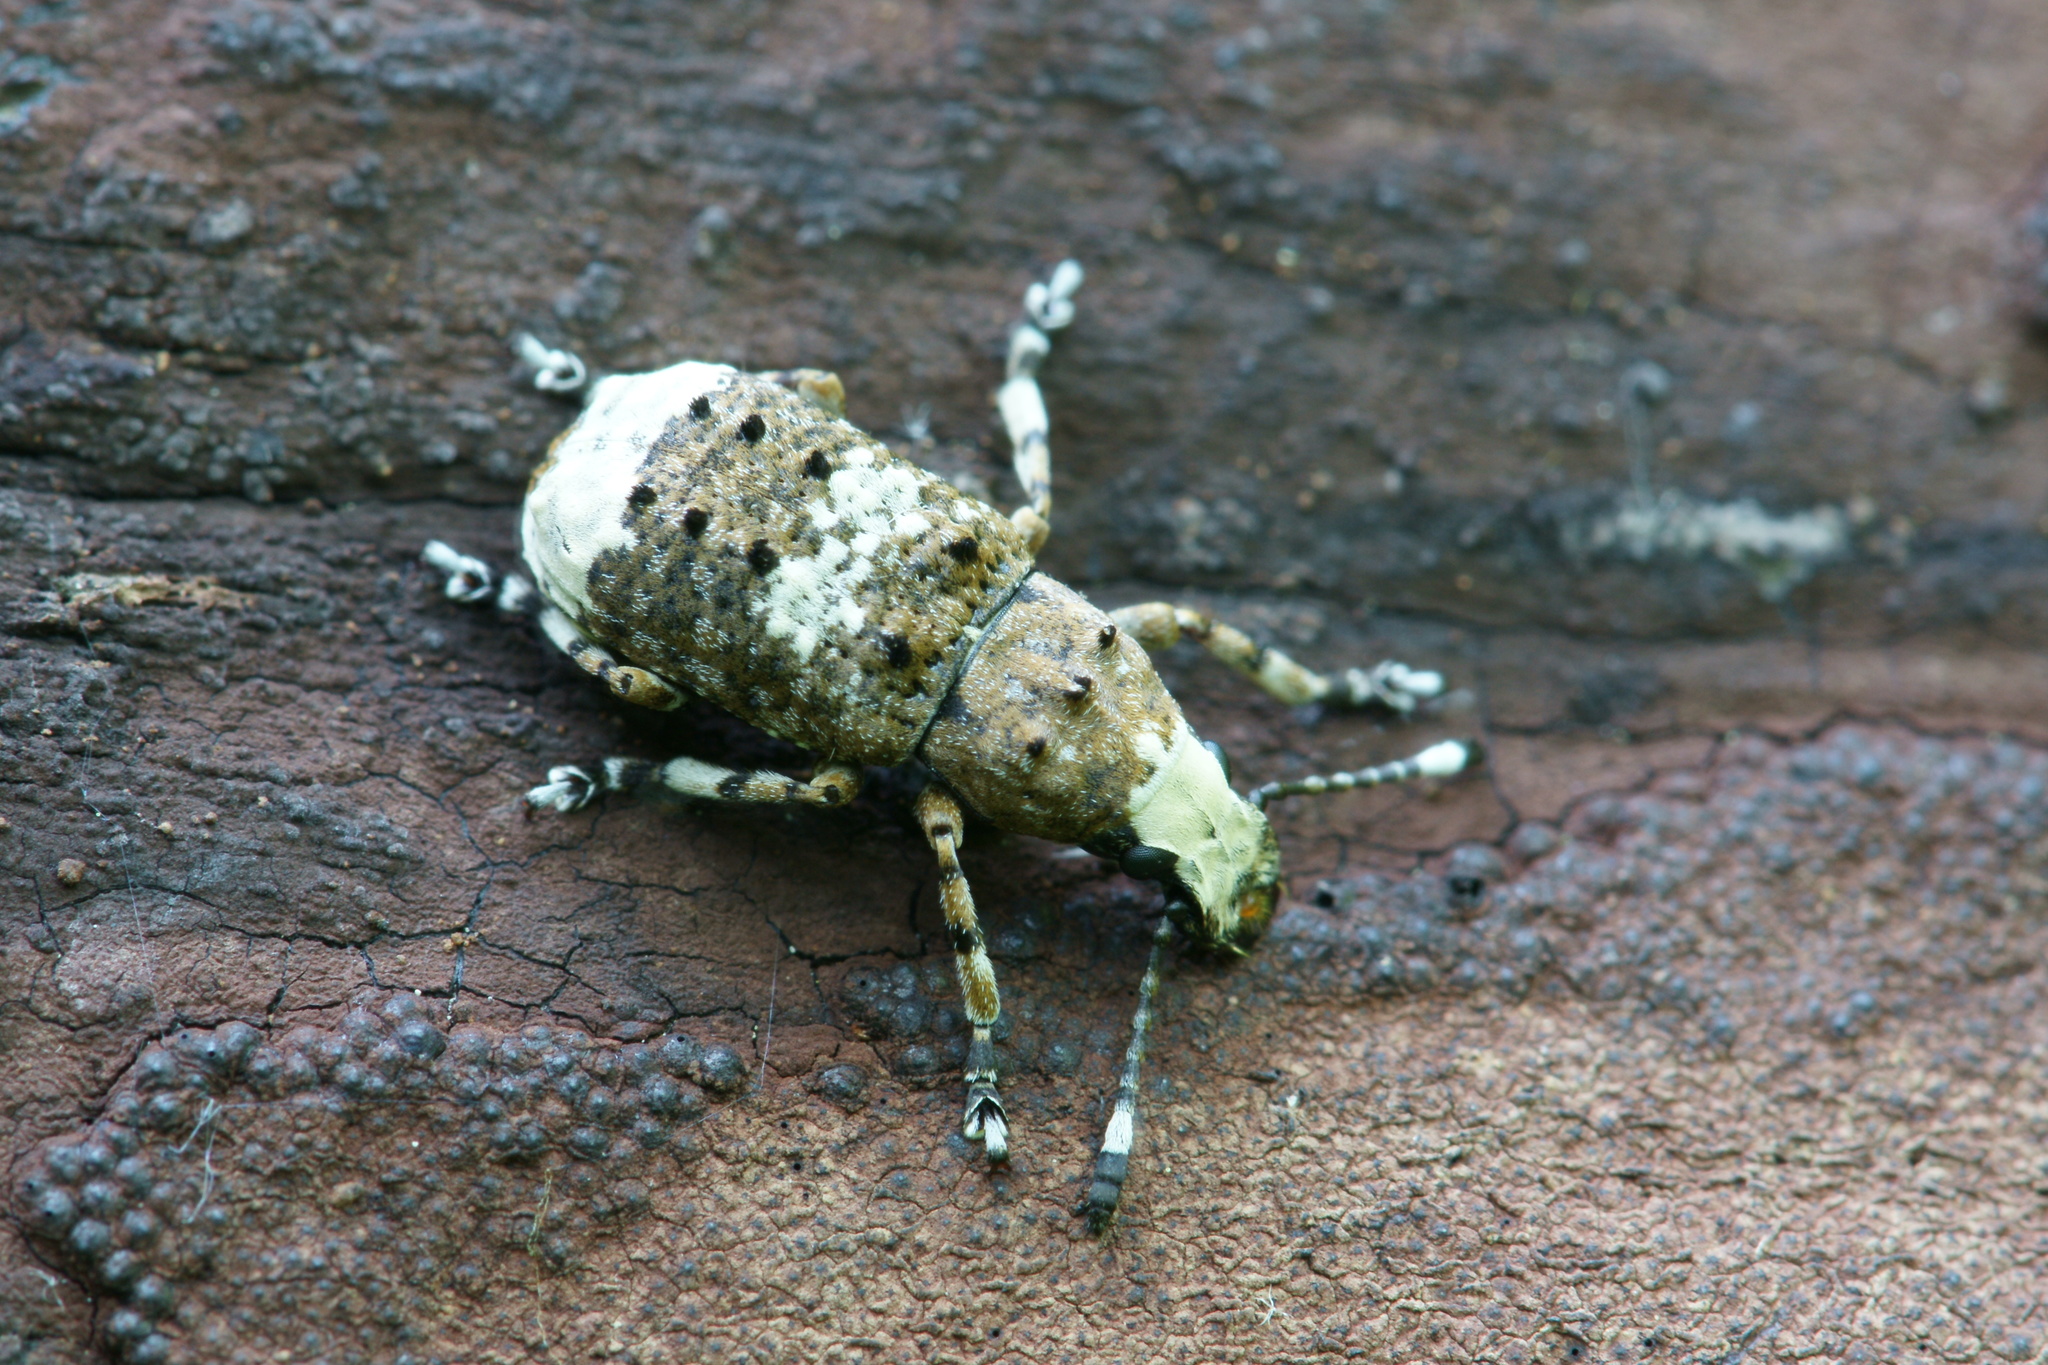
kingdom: Animalia
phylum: Arthropoda
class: Insecta
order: Coleoptera
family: Anthribidae
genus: Platystomos
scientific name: Platystomos albinus
